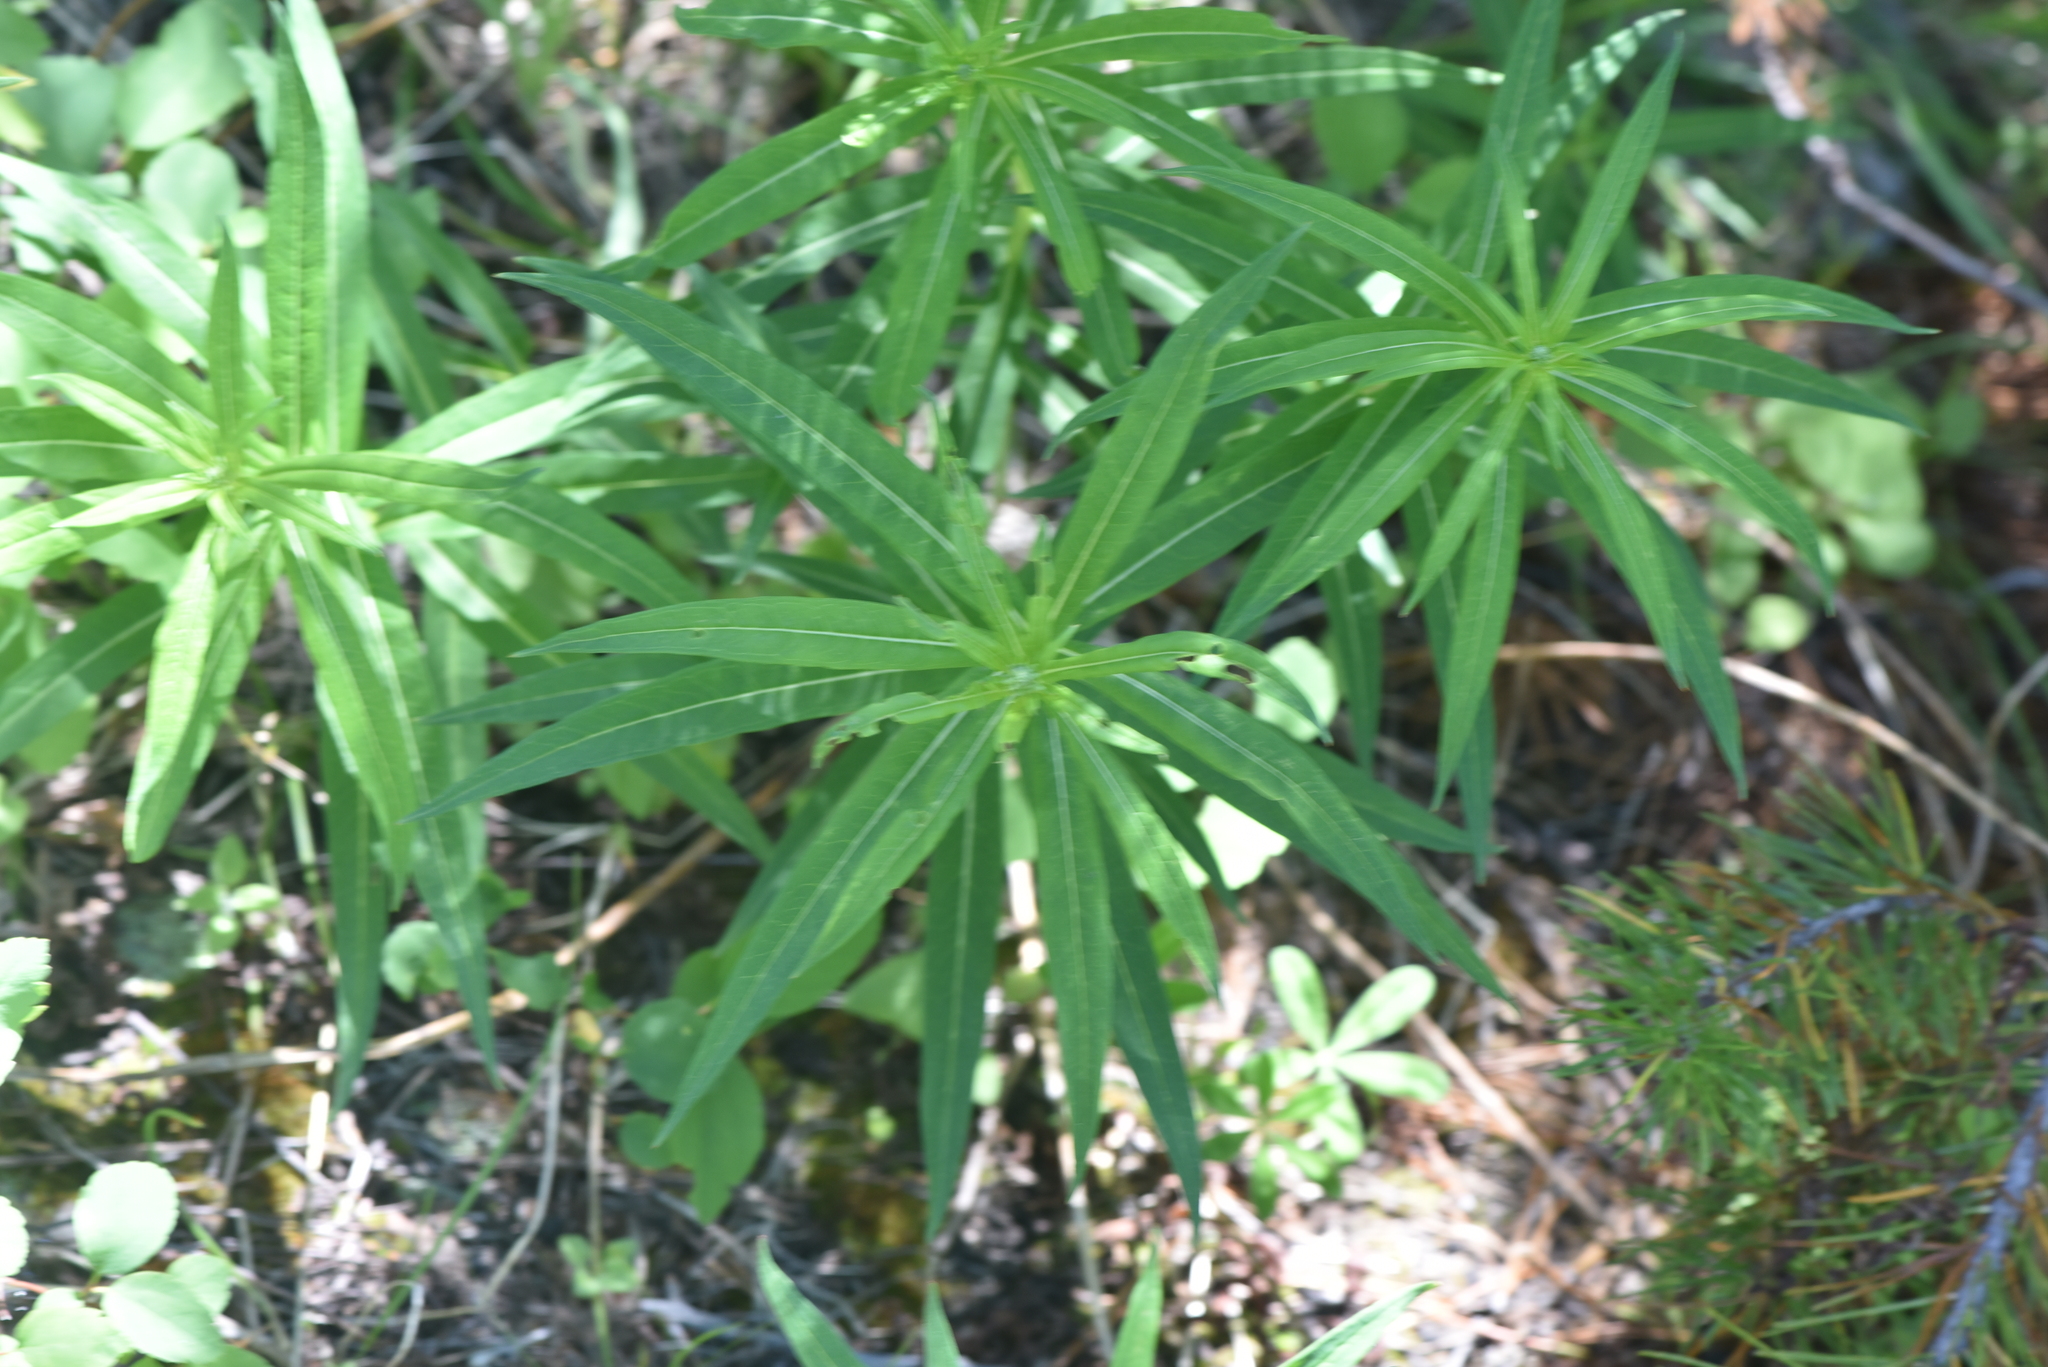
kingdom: Plantae
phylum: Tracheophyta
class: Magnoliopsida
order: Myrtales
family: Onagraceae
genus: Chamaenerion
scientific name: Chamaenerion angustifolium
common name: Fireweed
